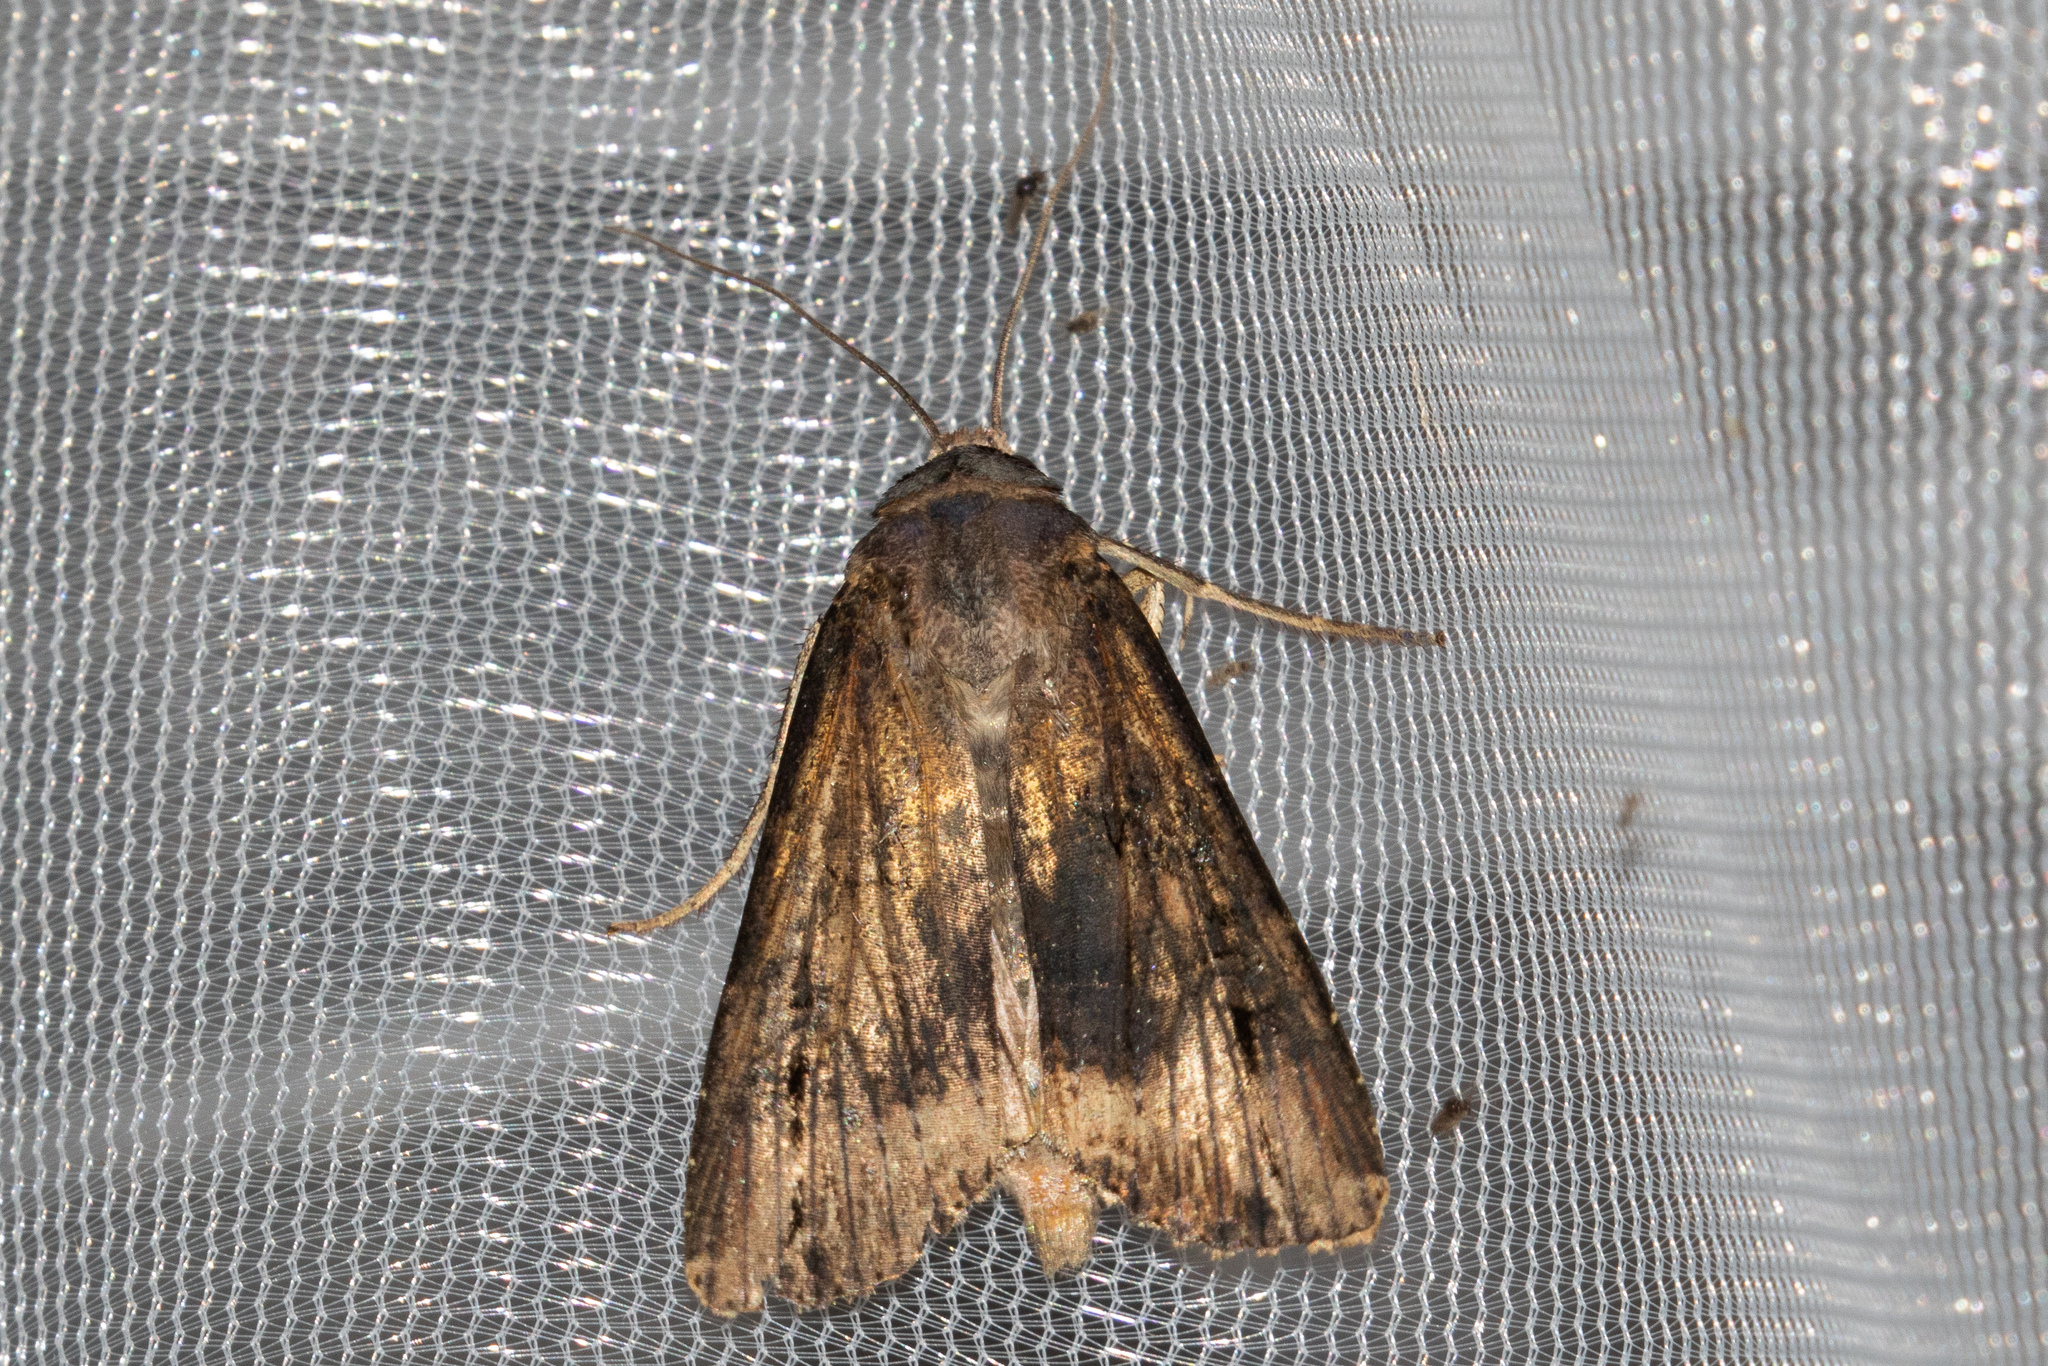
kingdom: Animalia
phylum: Arthropoda
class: Insecta
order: Lepidoptera
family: Noctuidae
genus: Agrotis
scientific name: Agrotis ipsilon
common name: Dark sword-grass
